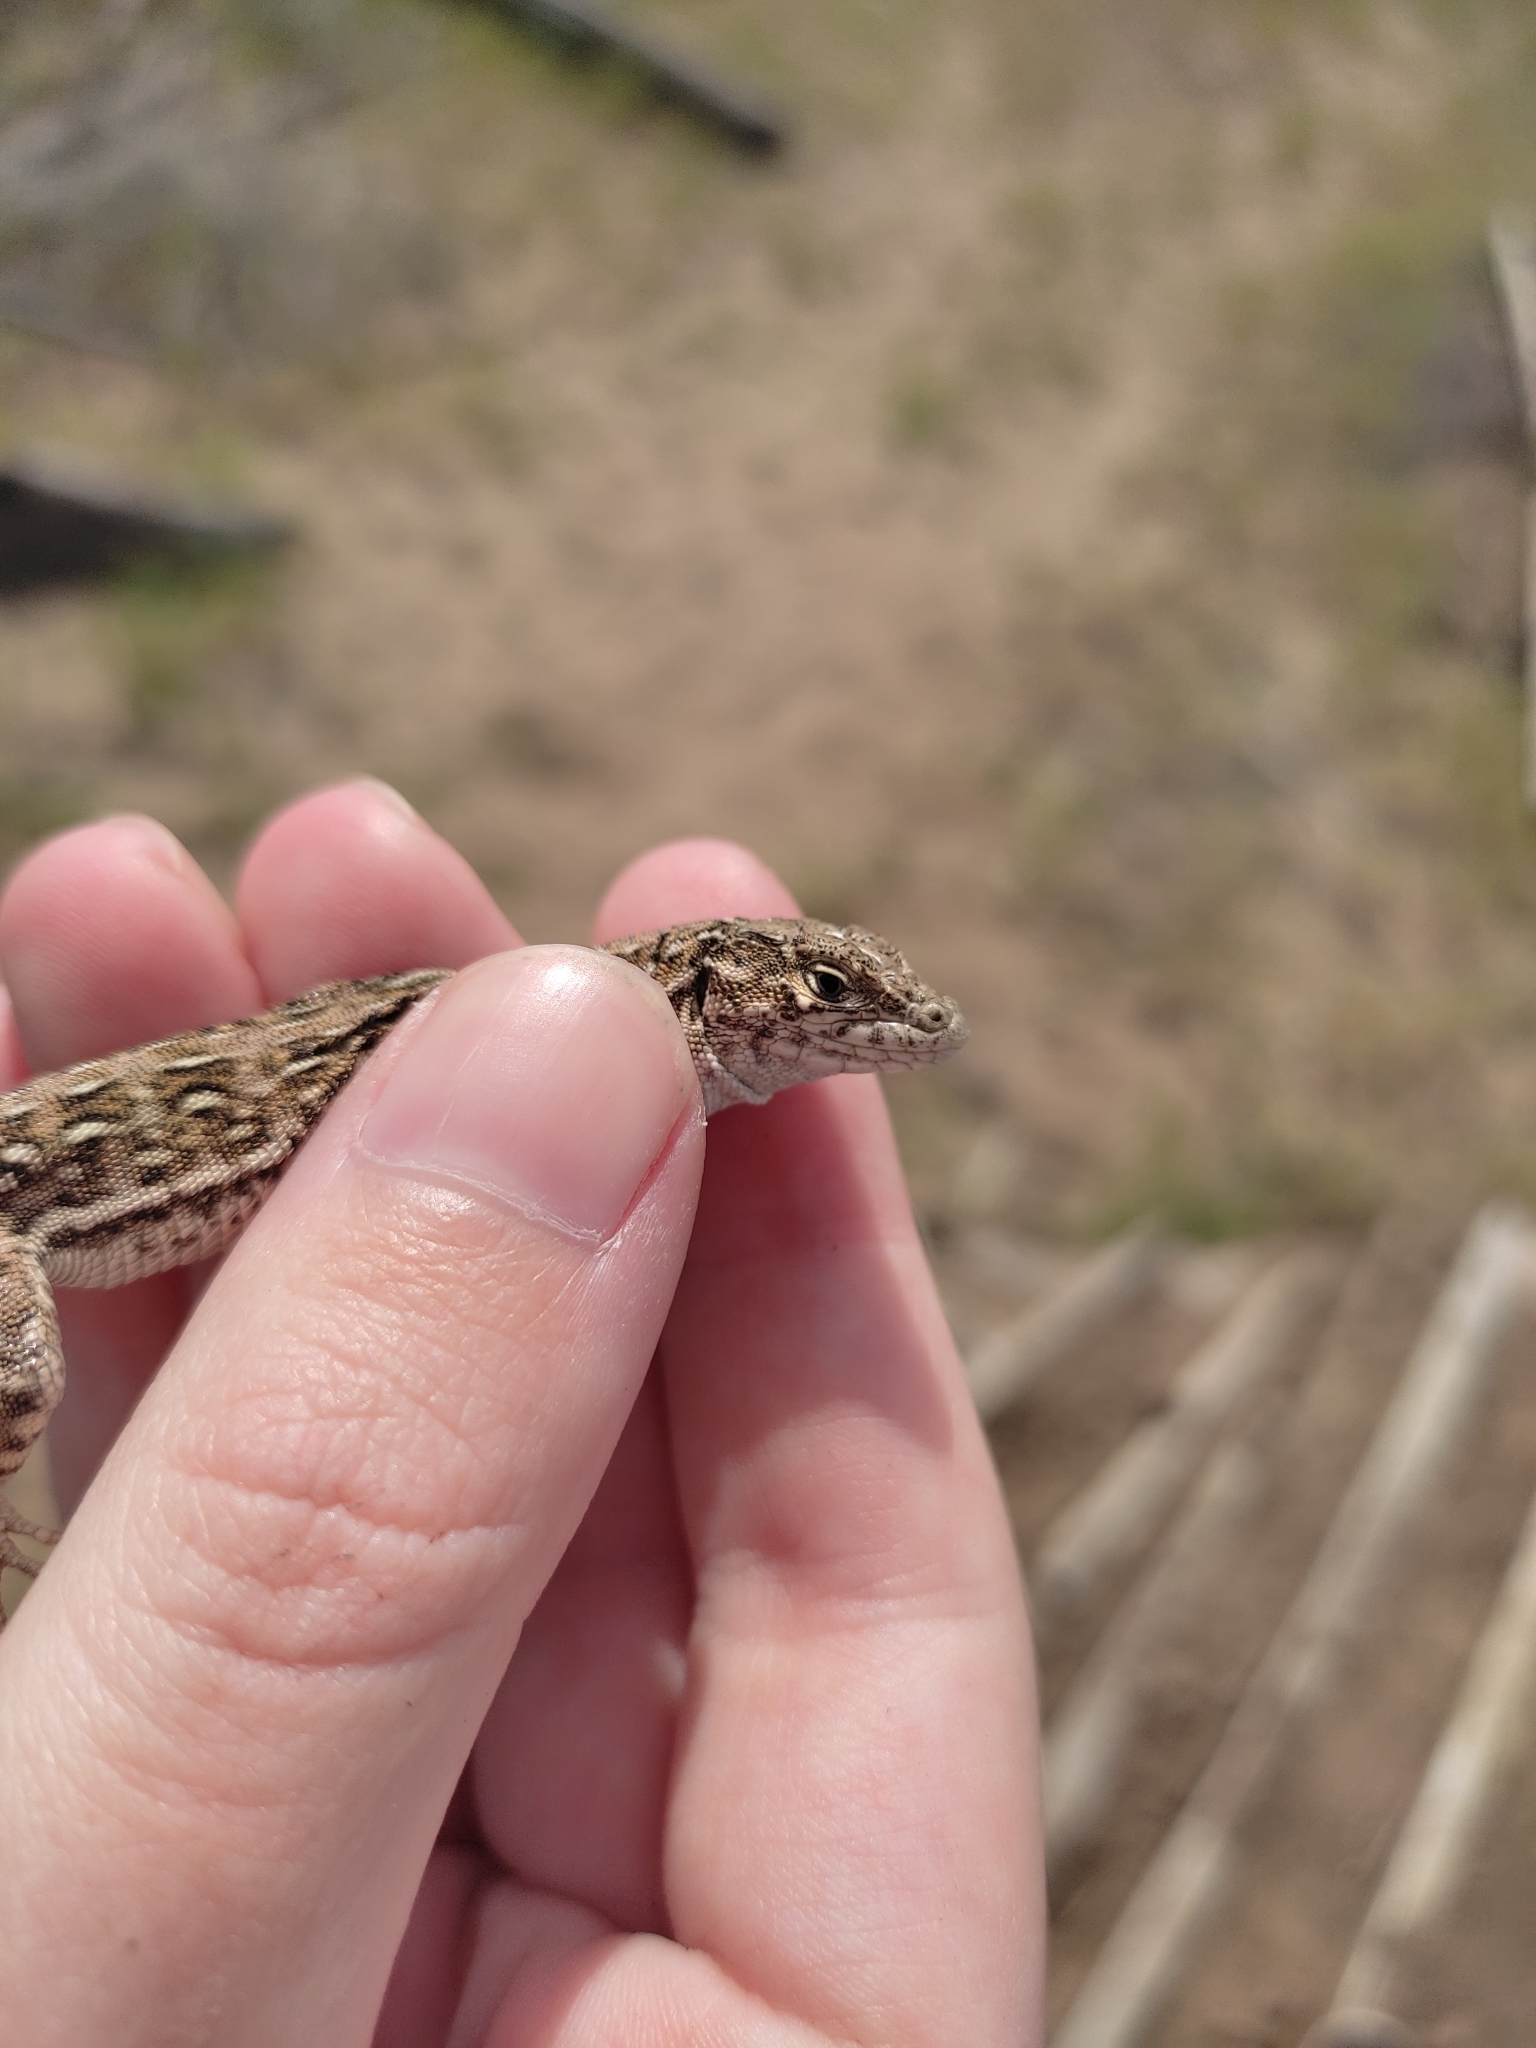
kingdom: Animalia
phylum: Chordata
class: Squamata
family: Lacertidae
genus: Eremias
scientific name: Eremias arguta
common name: Racerunner
